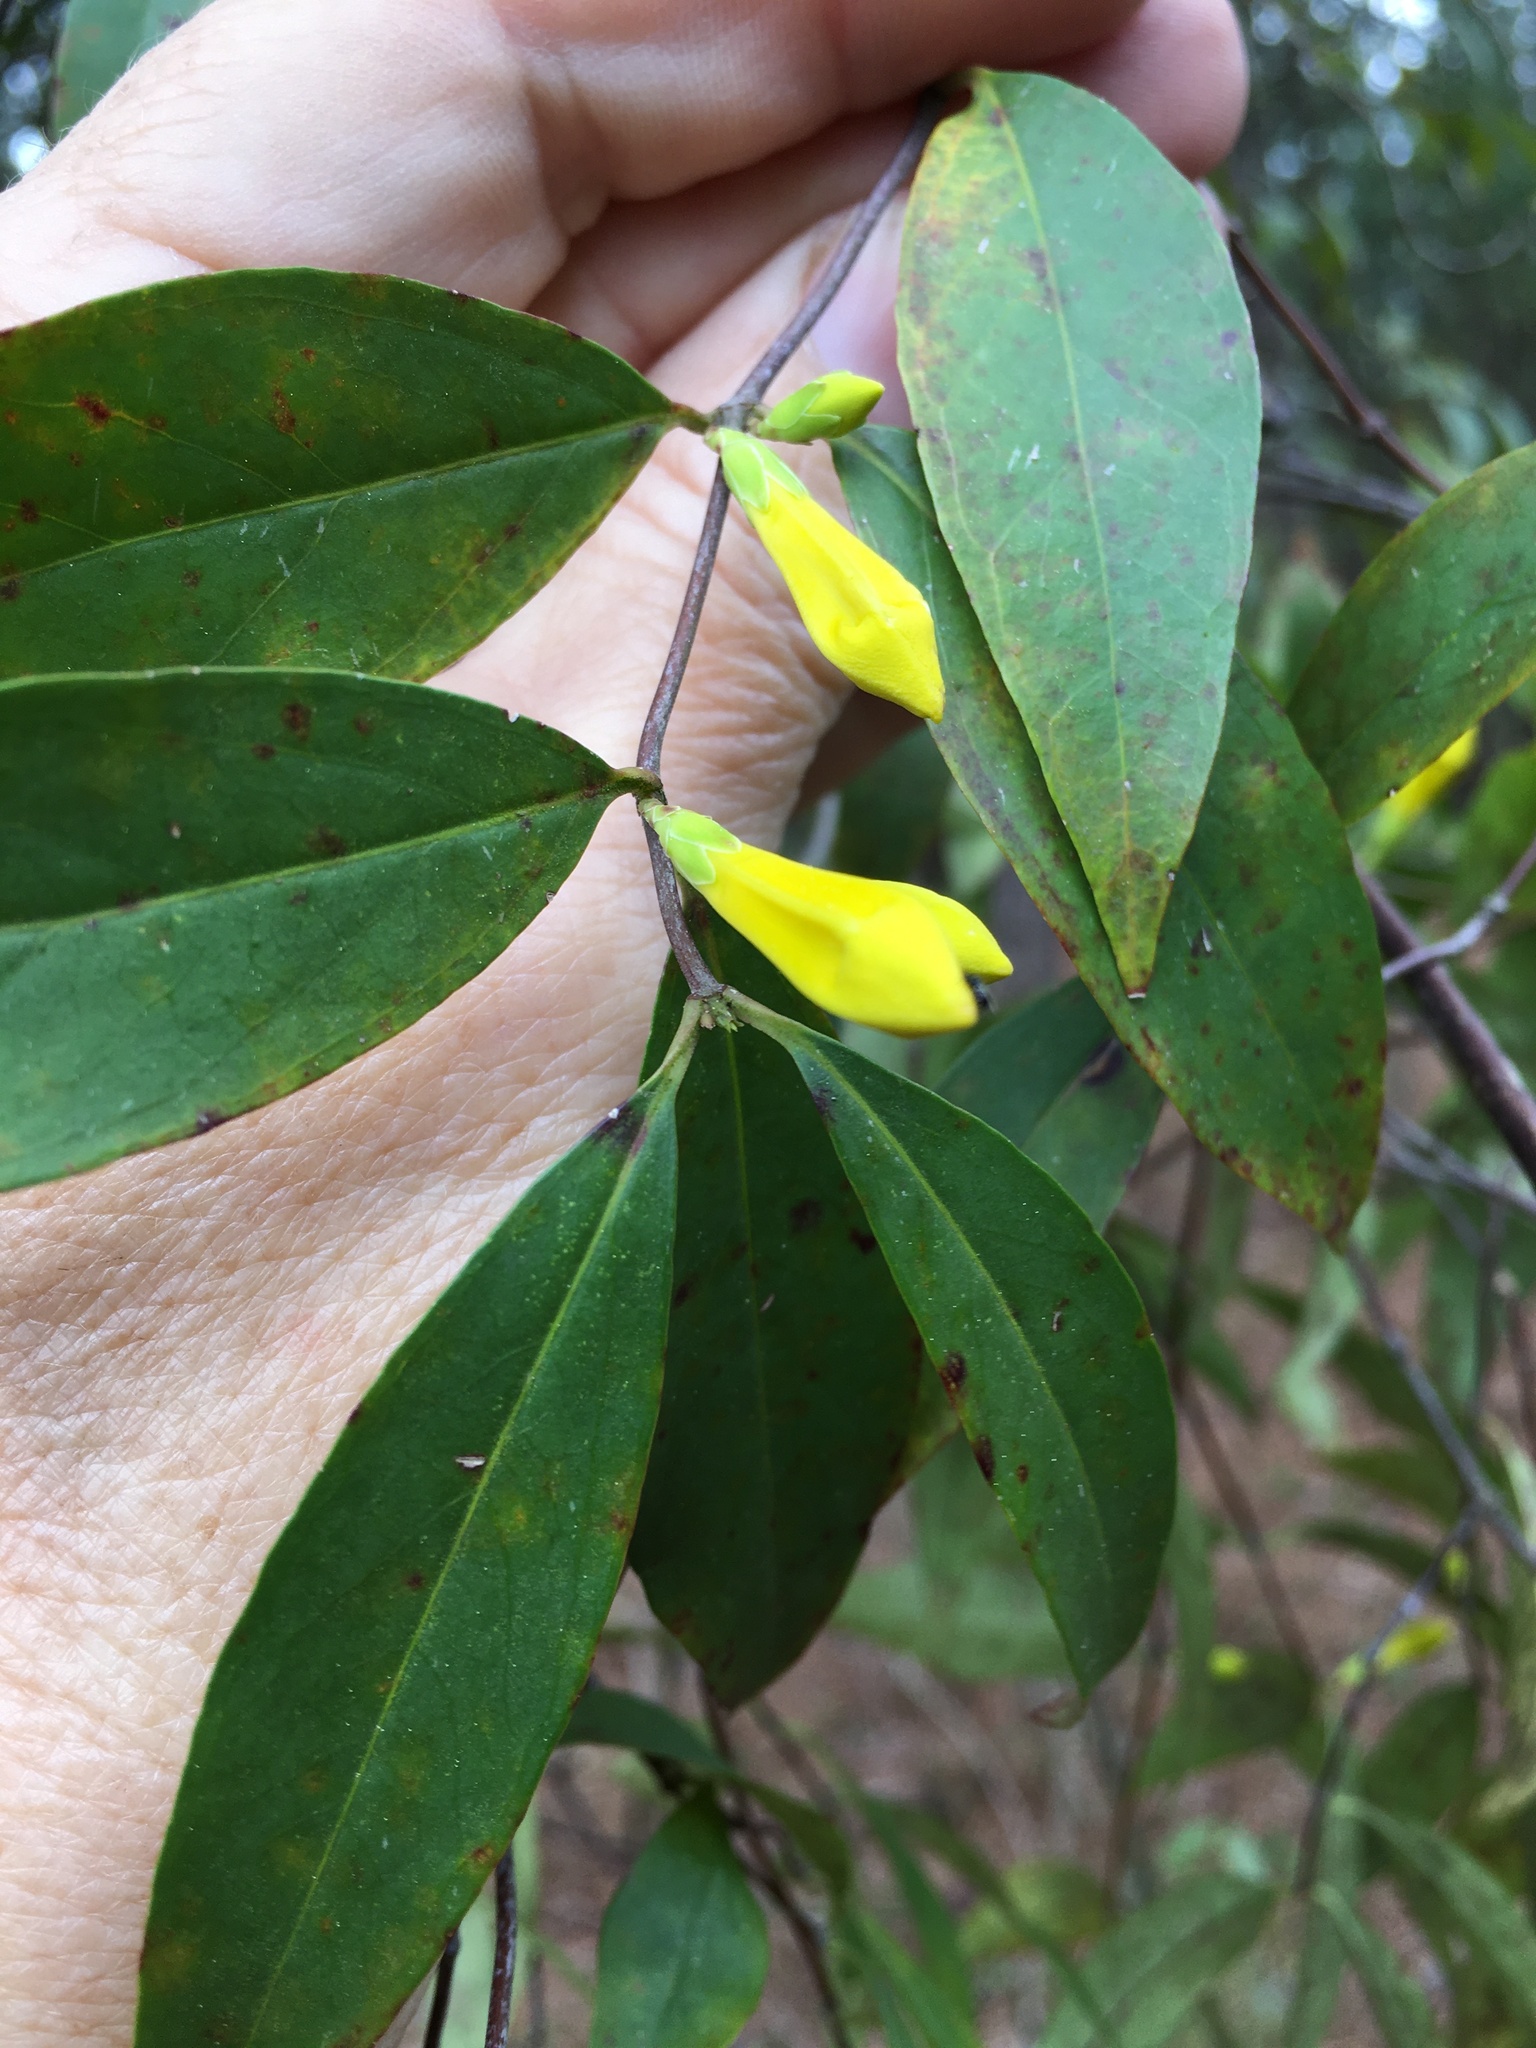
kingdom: Plantae
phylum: Tracheophyta
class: Magnoliopsida
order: Gentianales
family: Gelsemiaceae
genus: Gelsemium
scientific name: Gelsemium sempervirens
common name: Carolina-jasmine
